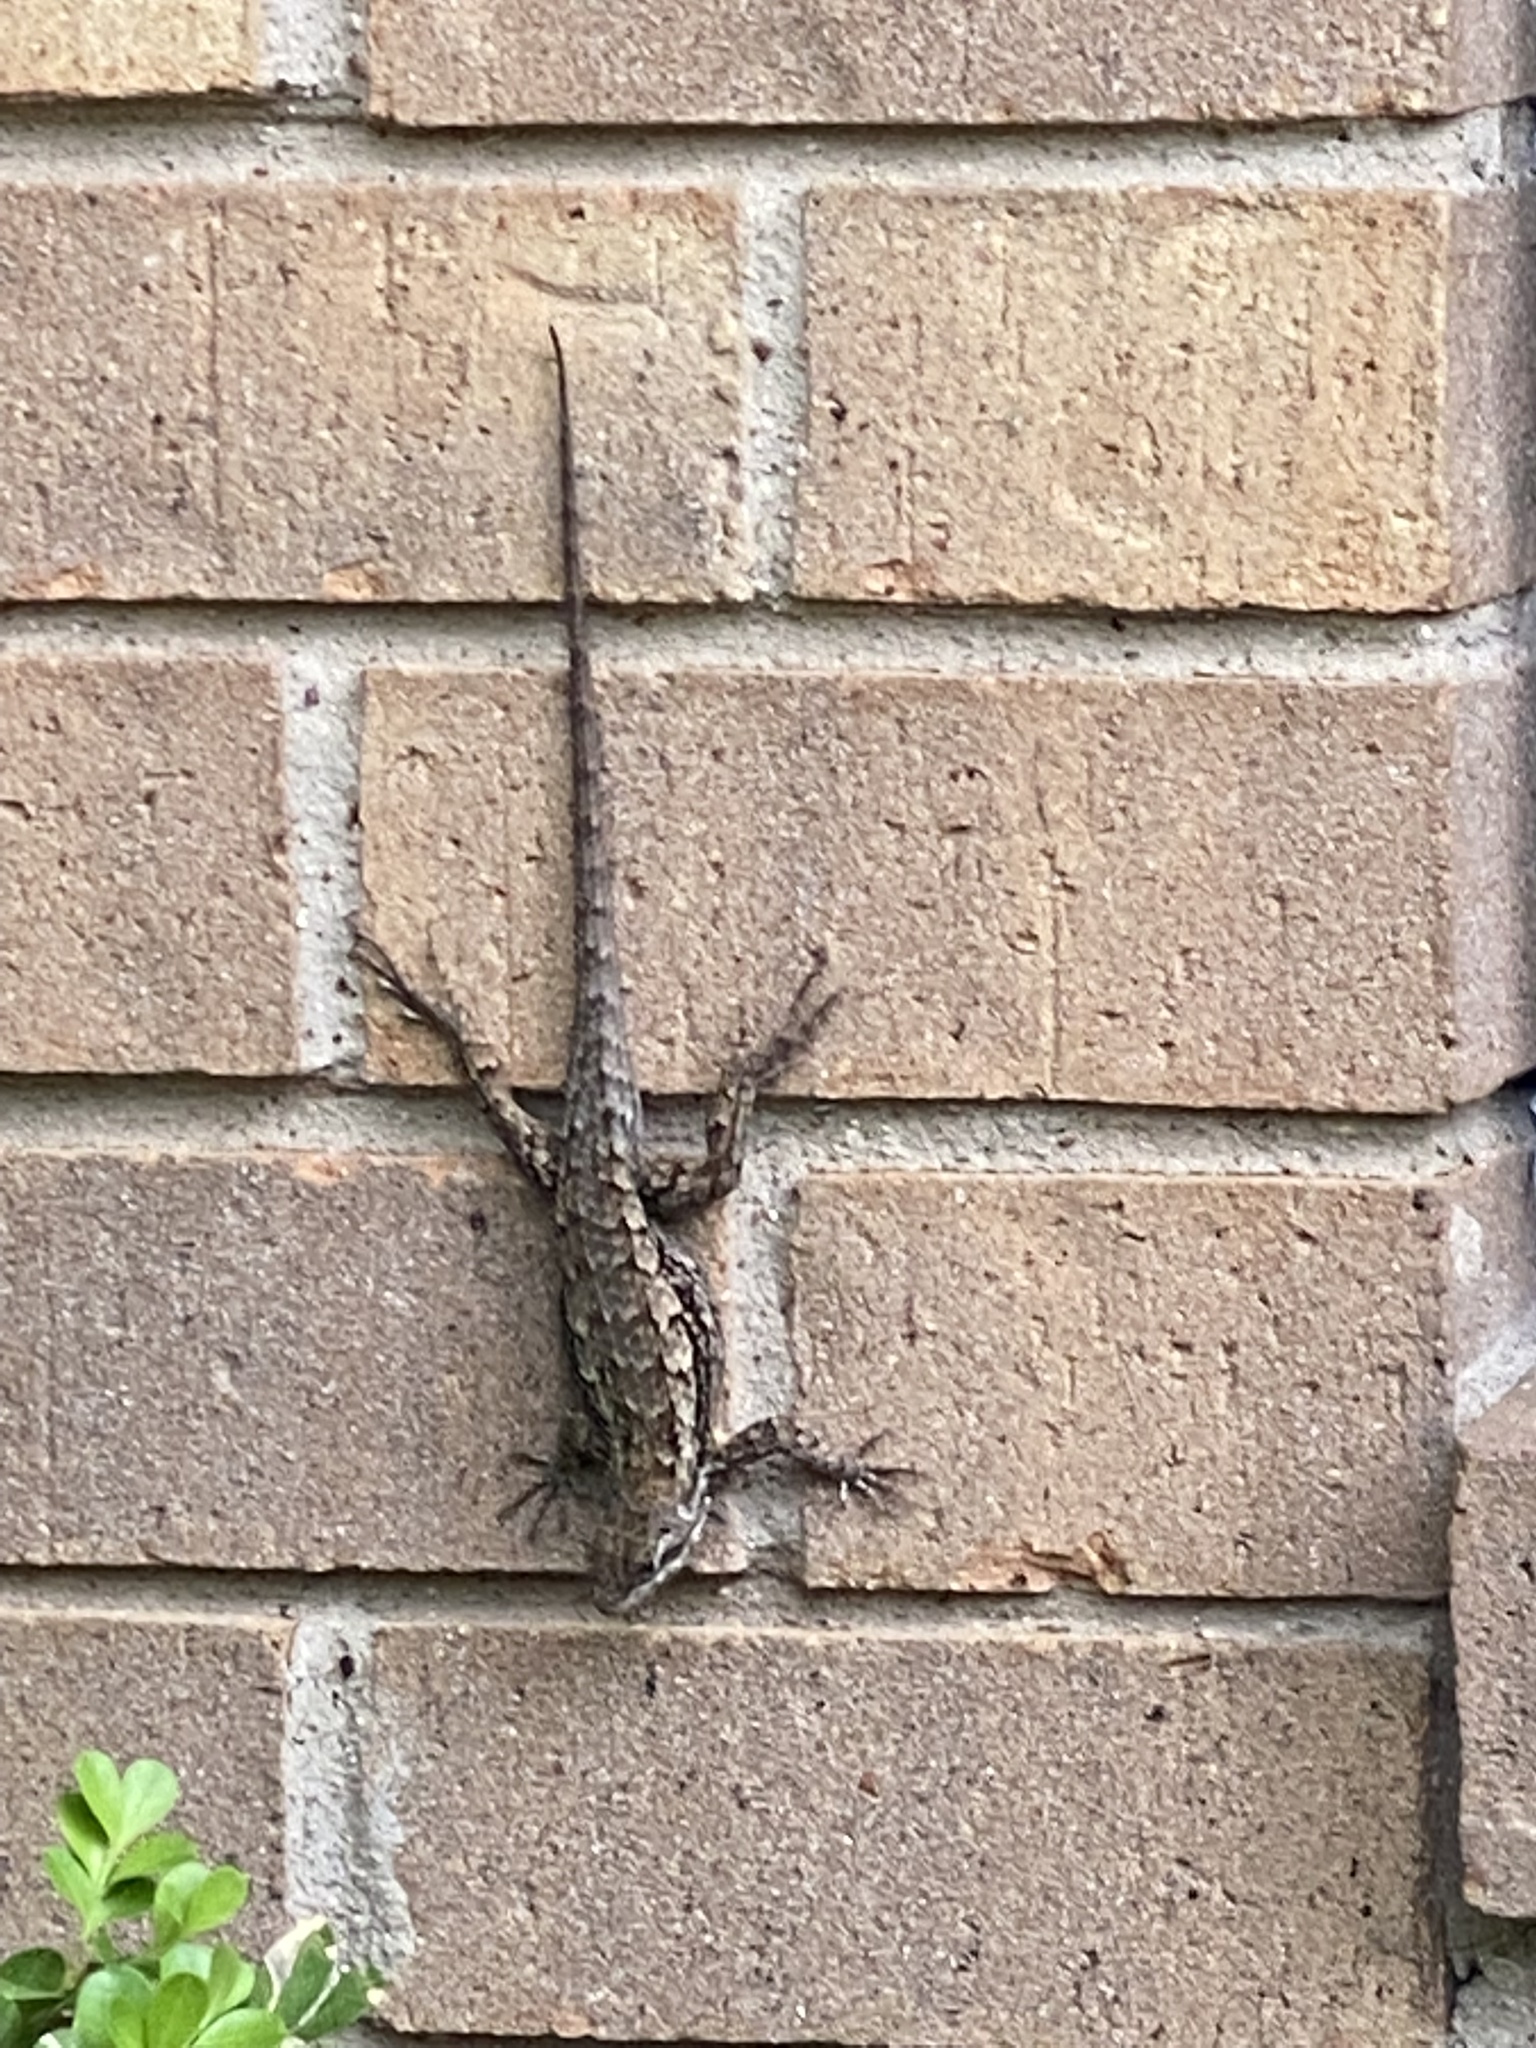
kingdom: Animalia
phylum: Chordata
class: Squamata
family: Phrynosomatidae
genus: Sceloporus
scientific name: Sceloporus olivaceus
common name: Texas spiny lizard
